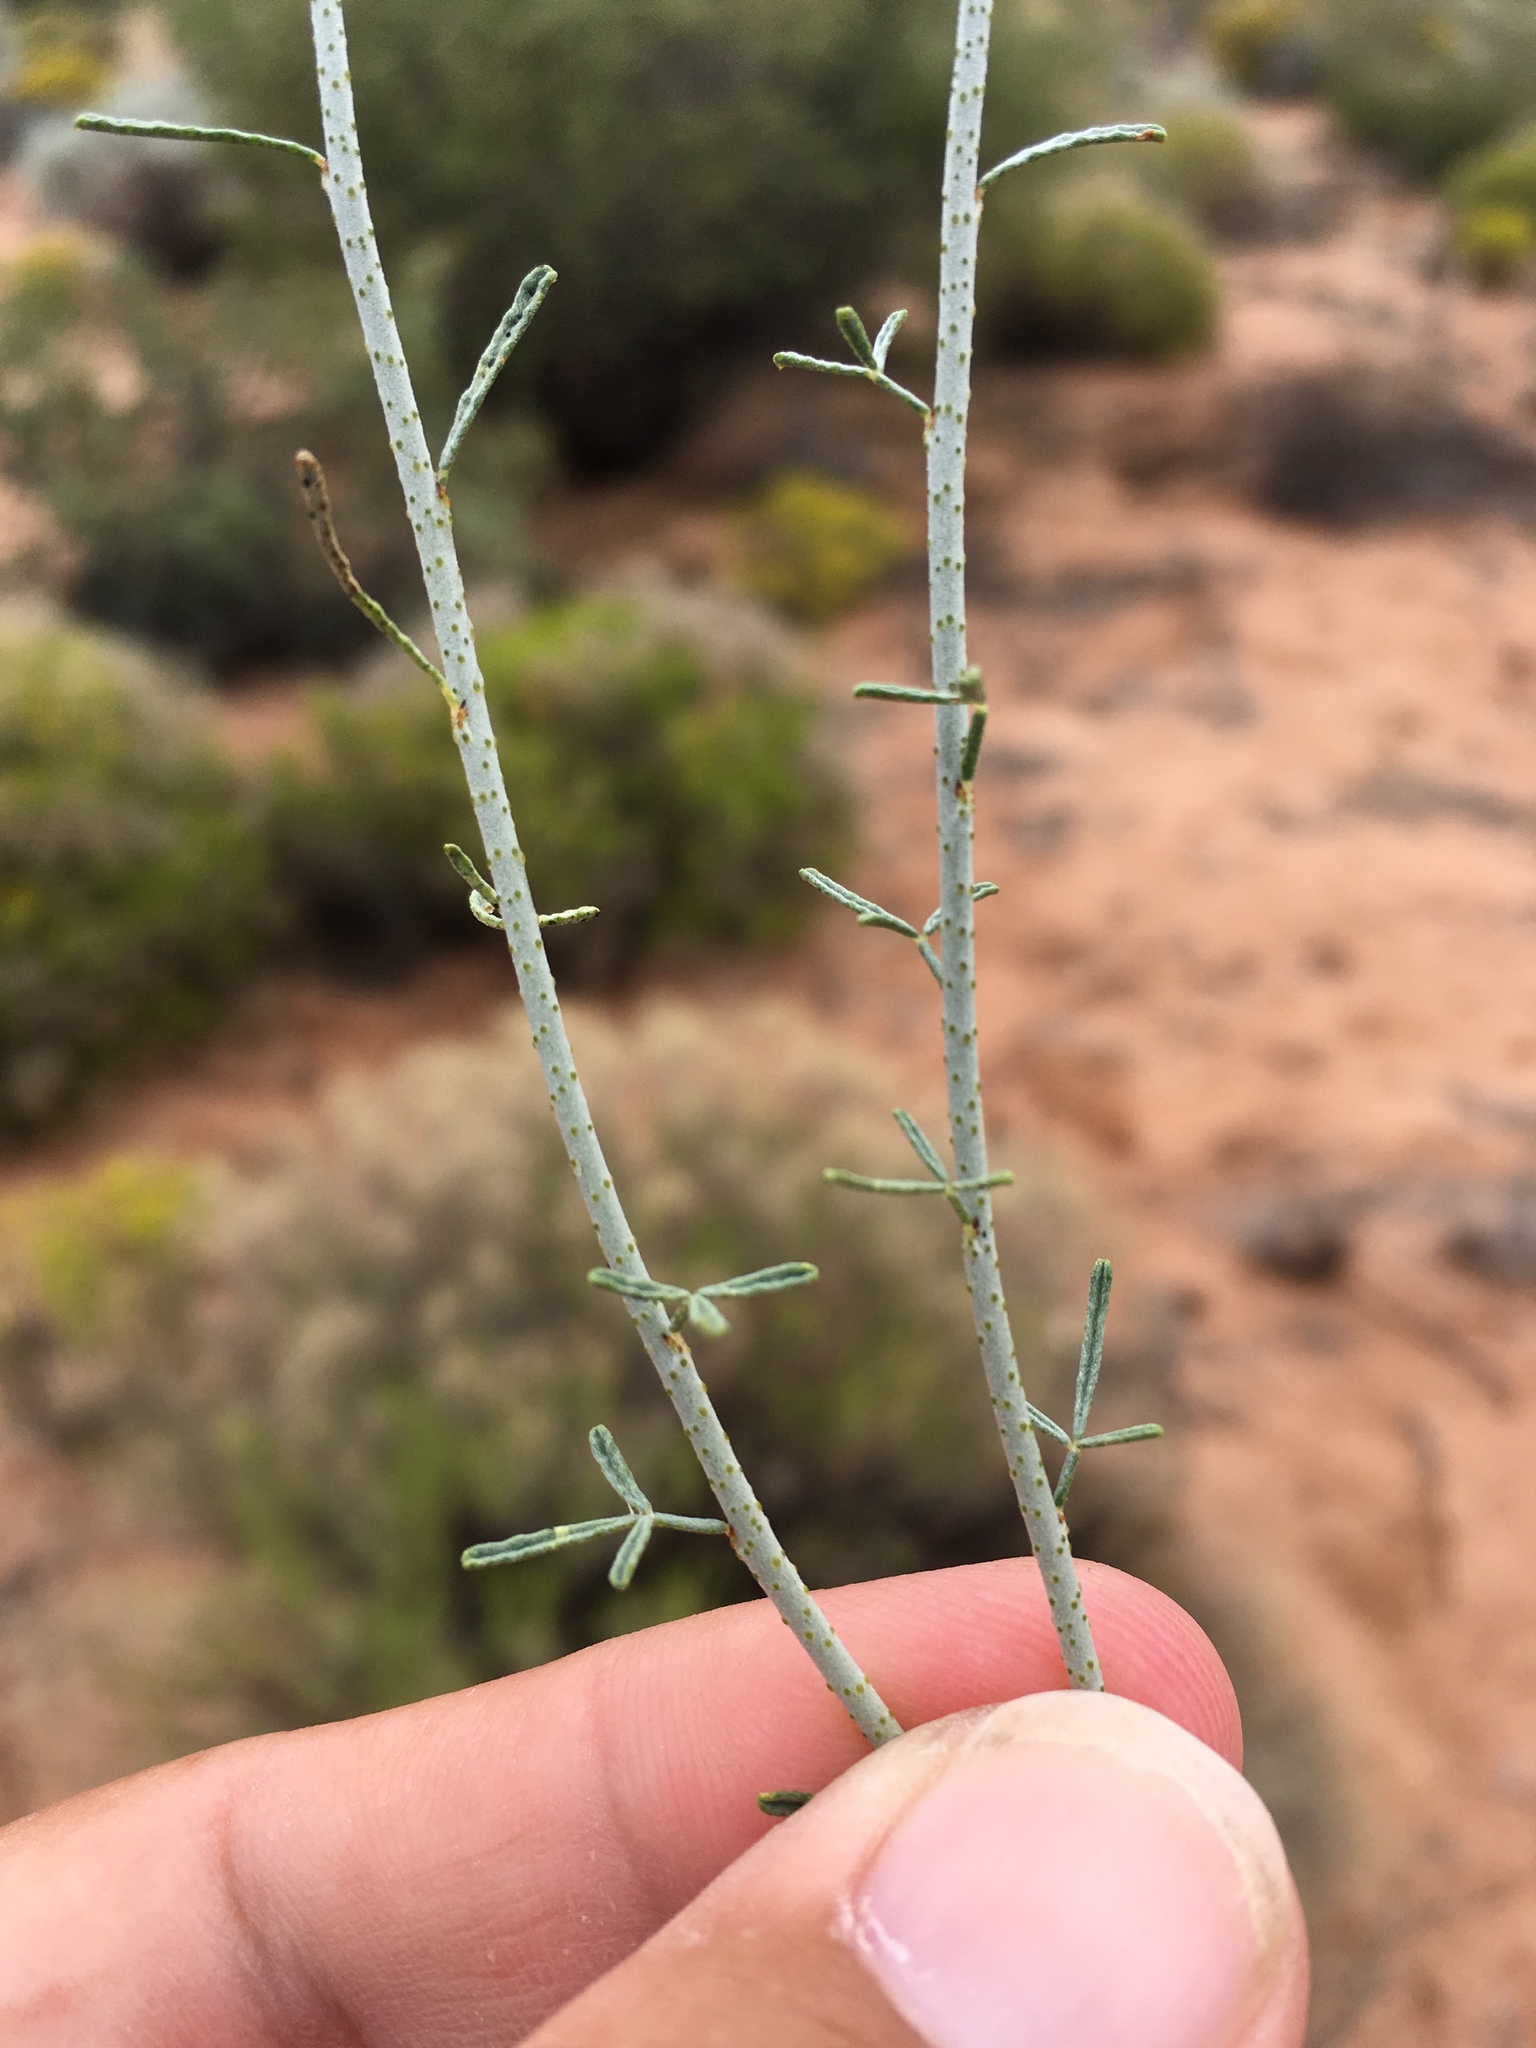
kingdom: Plantae
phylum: Tracheophyta
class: Magnoliopsida
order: Fabales
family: Fabaceae
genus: Psorothamnus
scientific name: Psorothamnus scoparius
